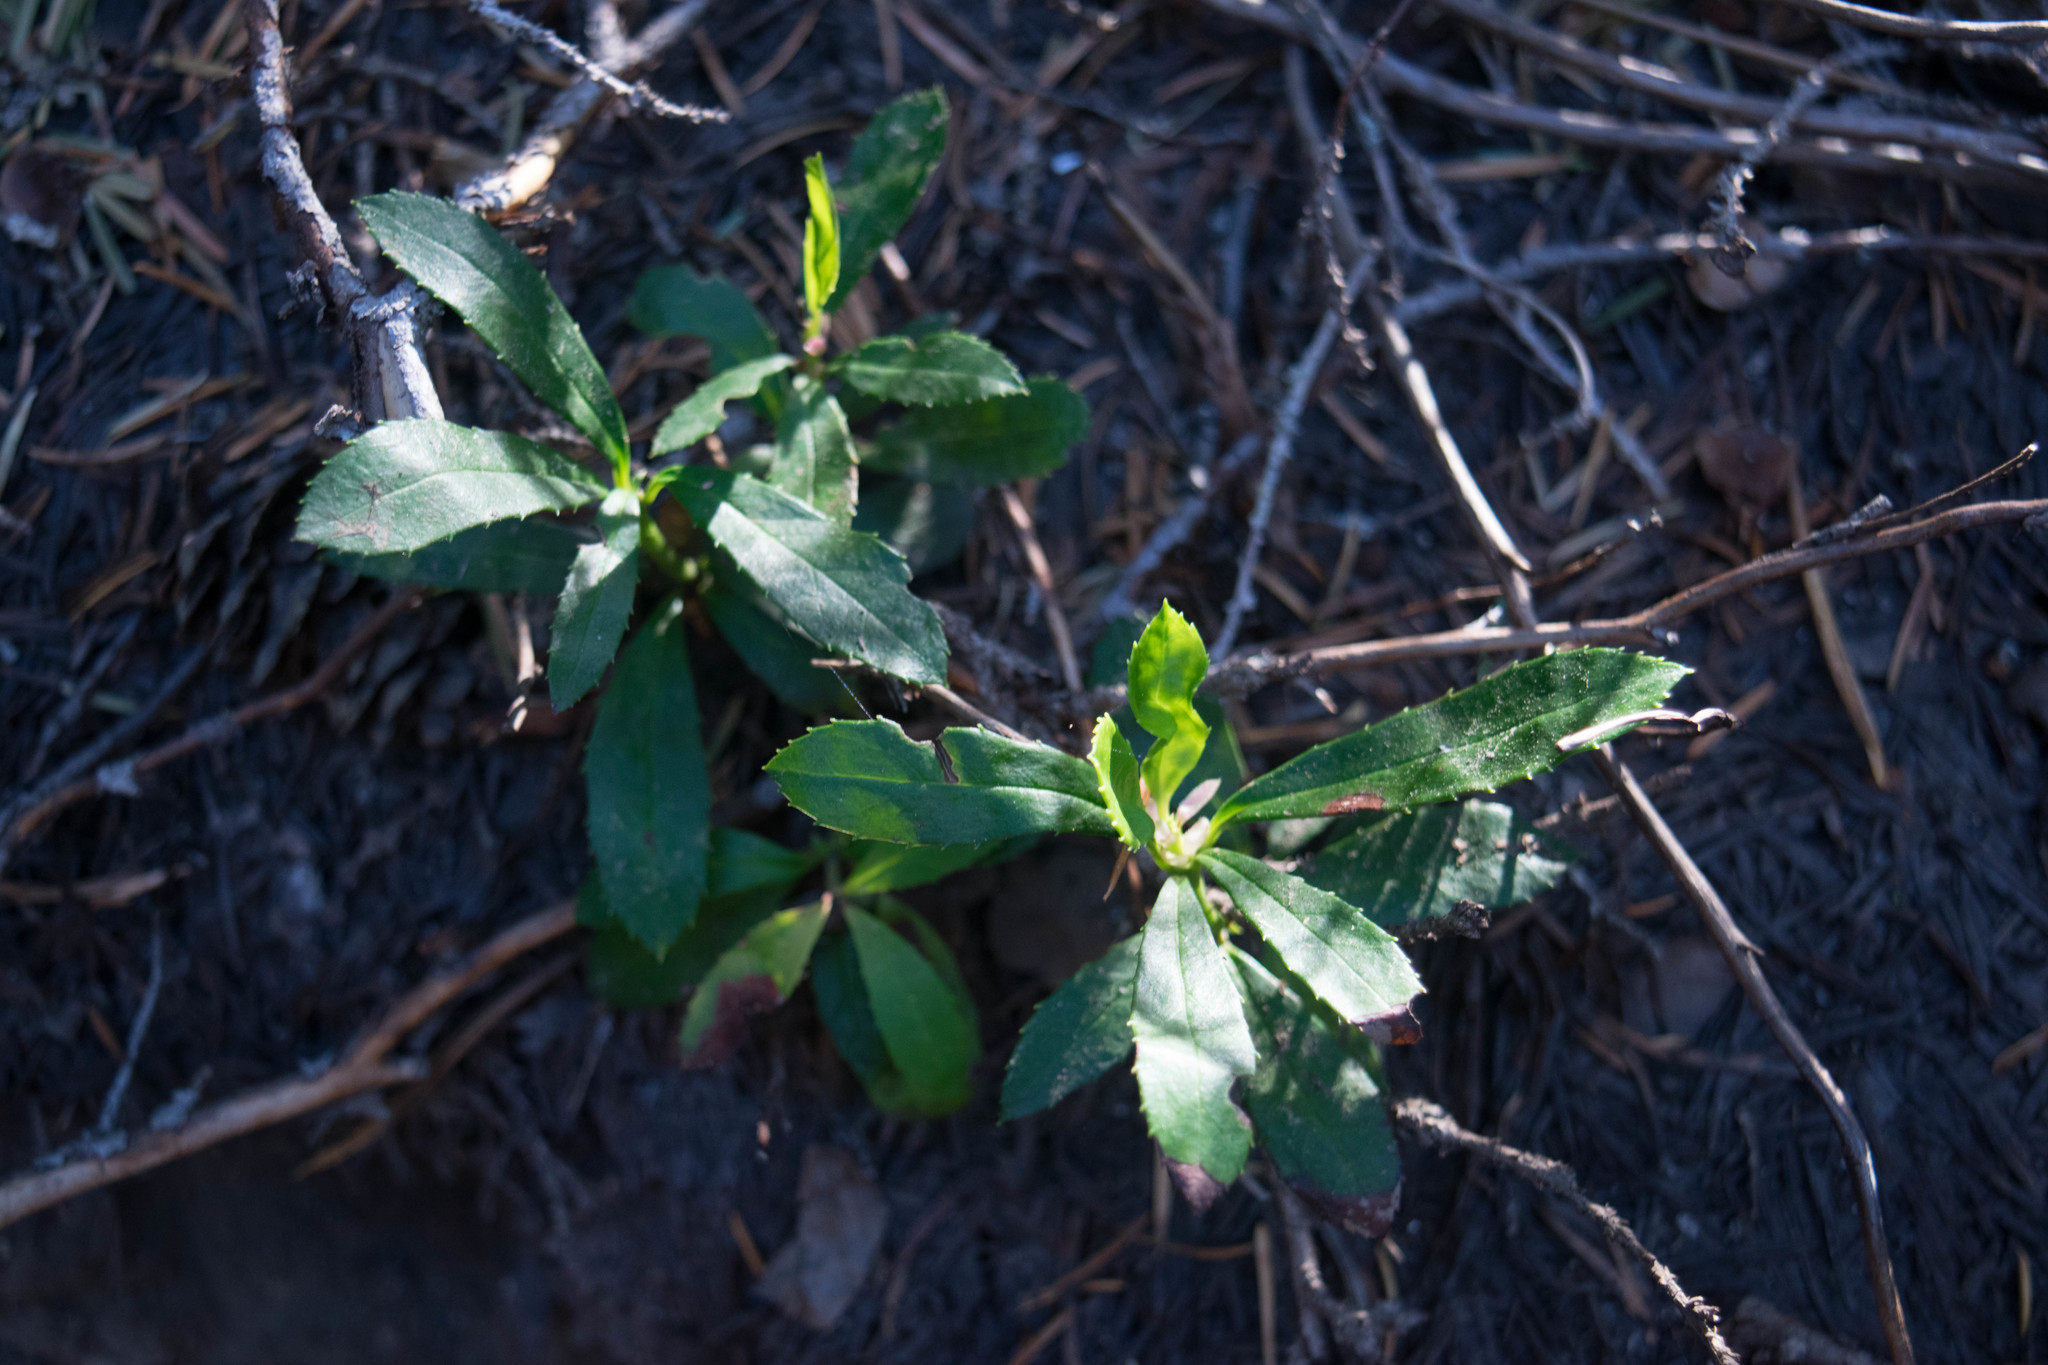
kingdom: Plantae
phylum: Tracheophyta
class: Magnoliopsida
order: Ericales
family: Ericaceae
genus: Chimaphila
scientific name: Chimaphila umbellata
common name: Pipsissewa
